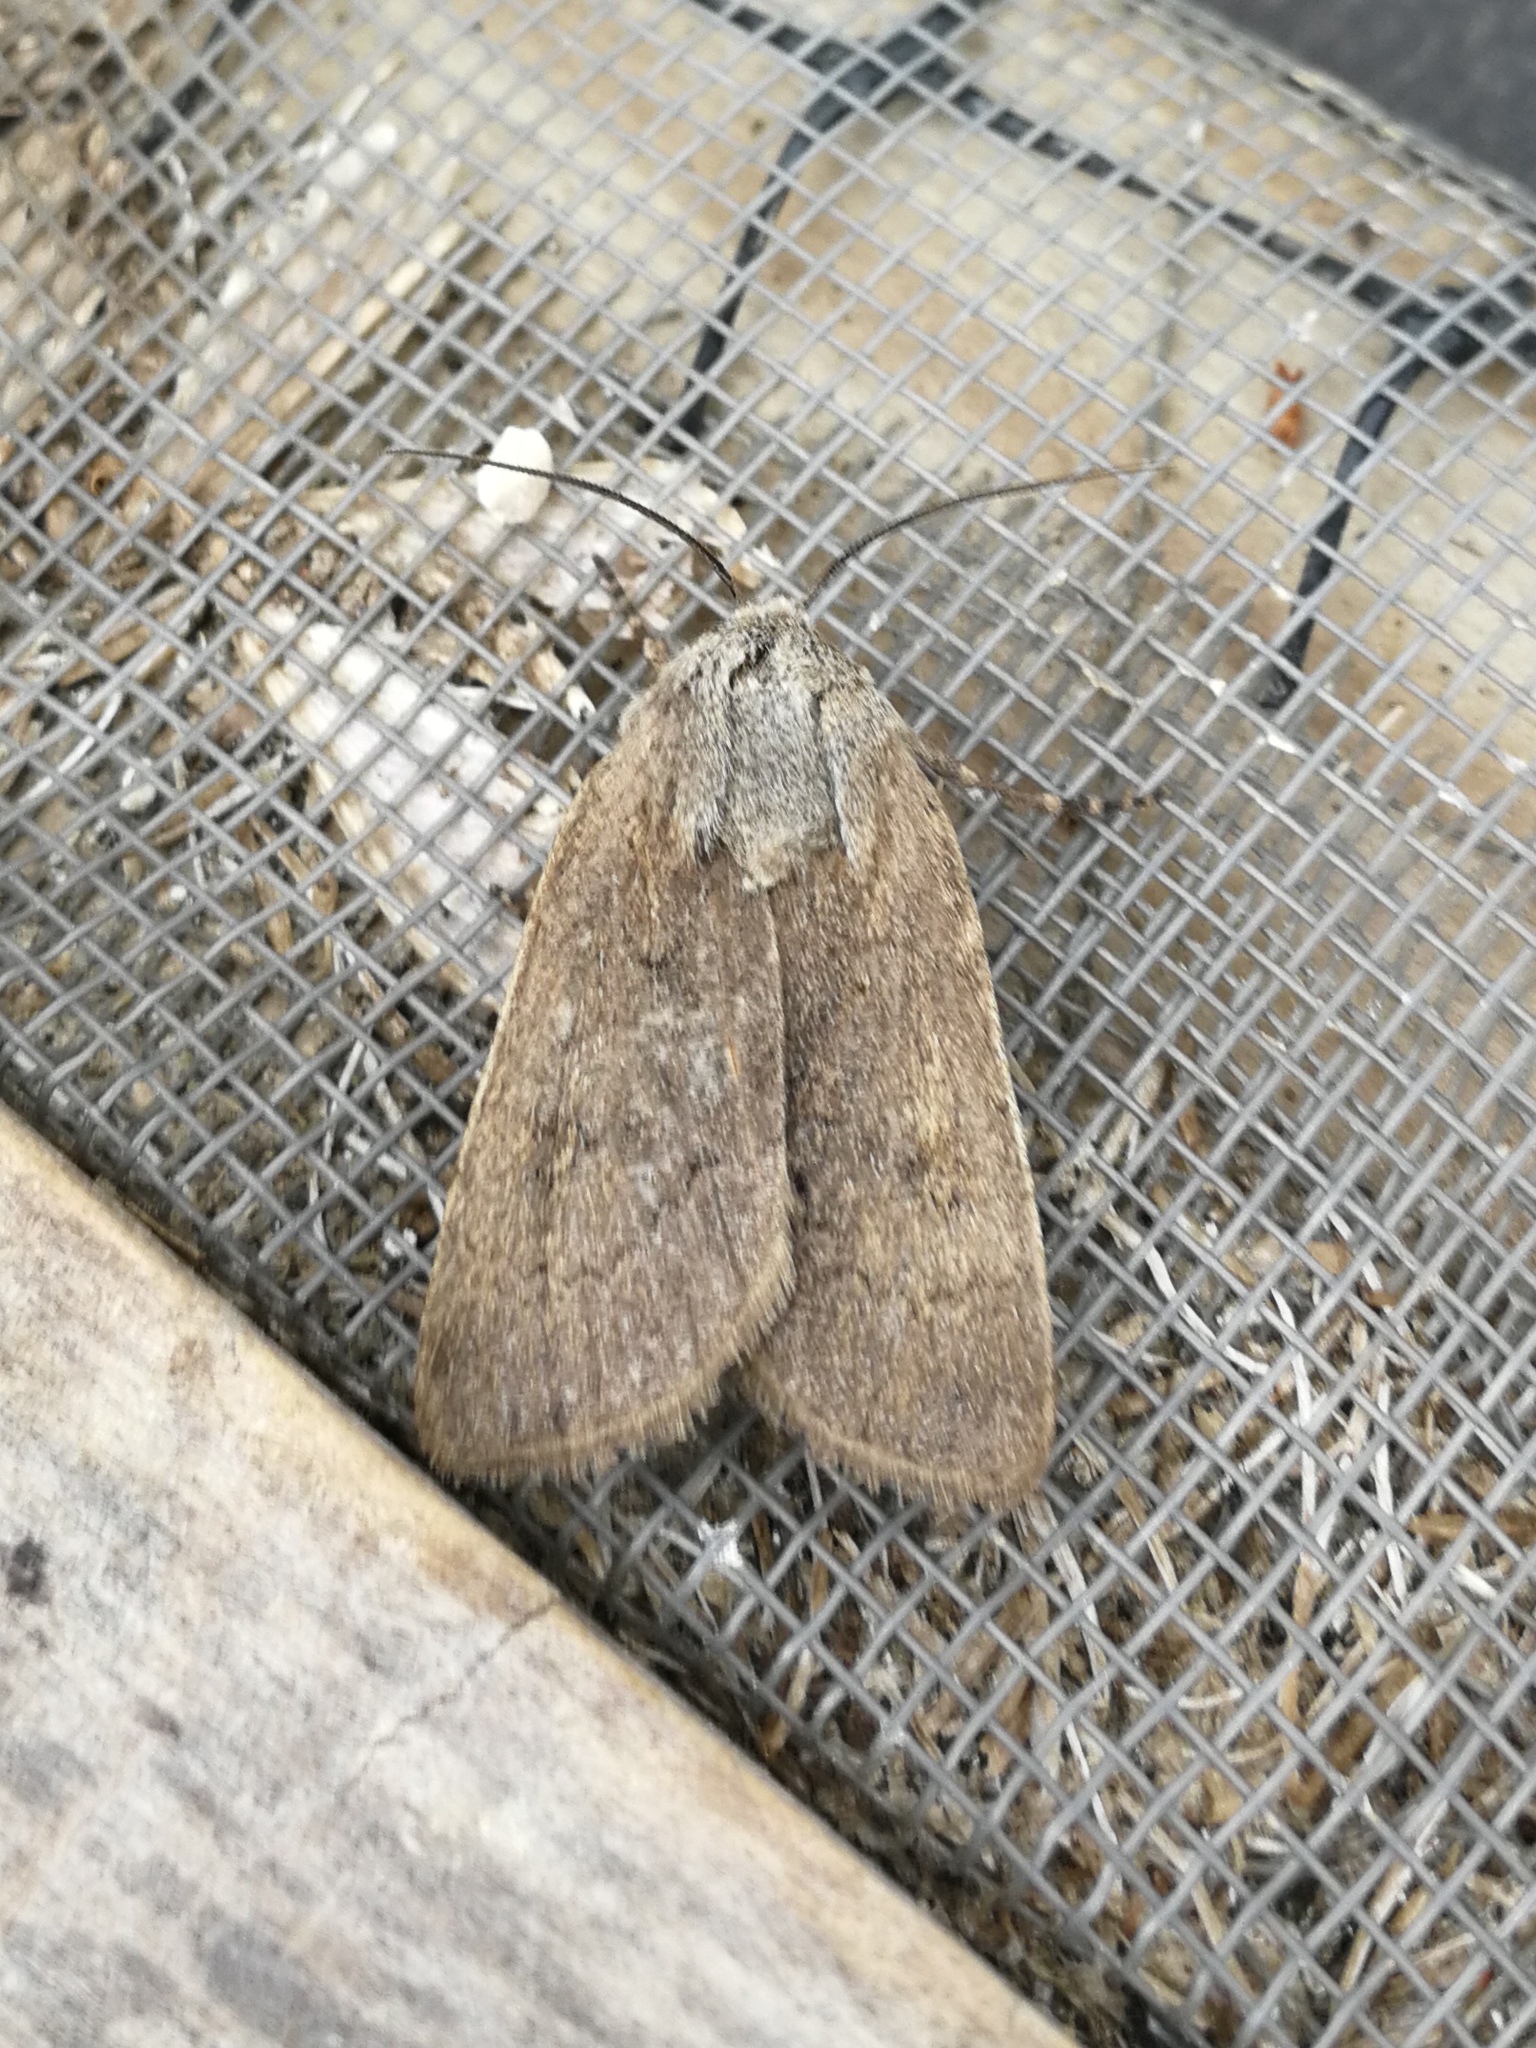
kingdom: Animalia
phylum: Arthropoda
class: Insecta
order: Lepidoptera
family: Noctuidae
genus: Agrotis
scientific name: Agrotis turatii
